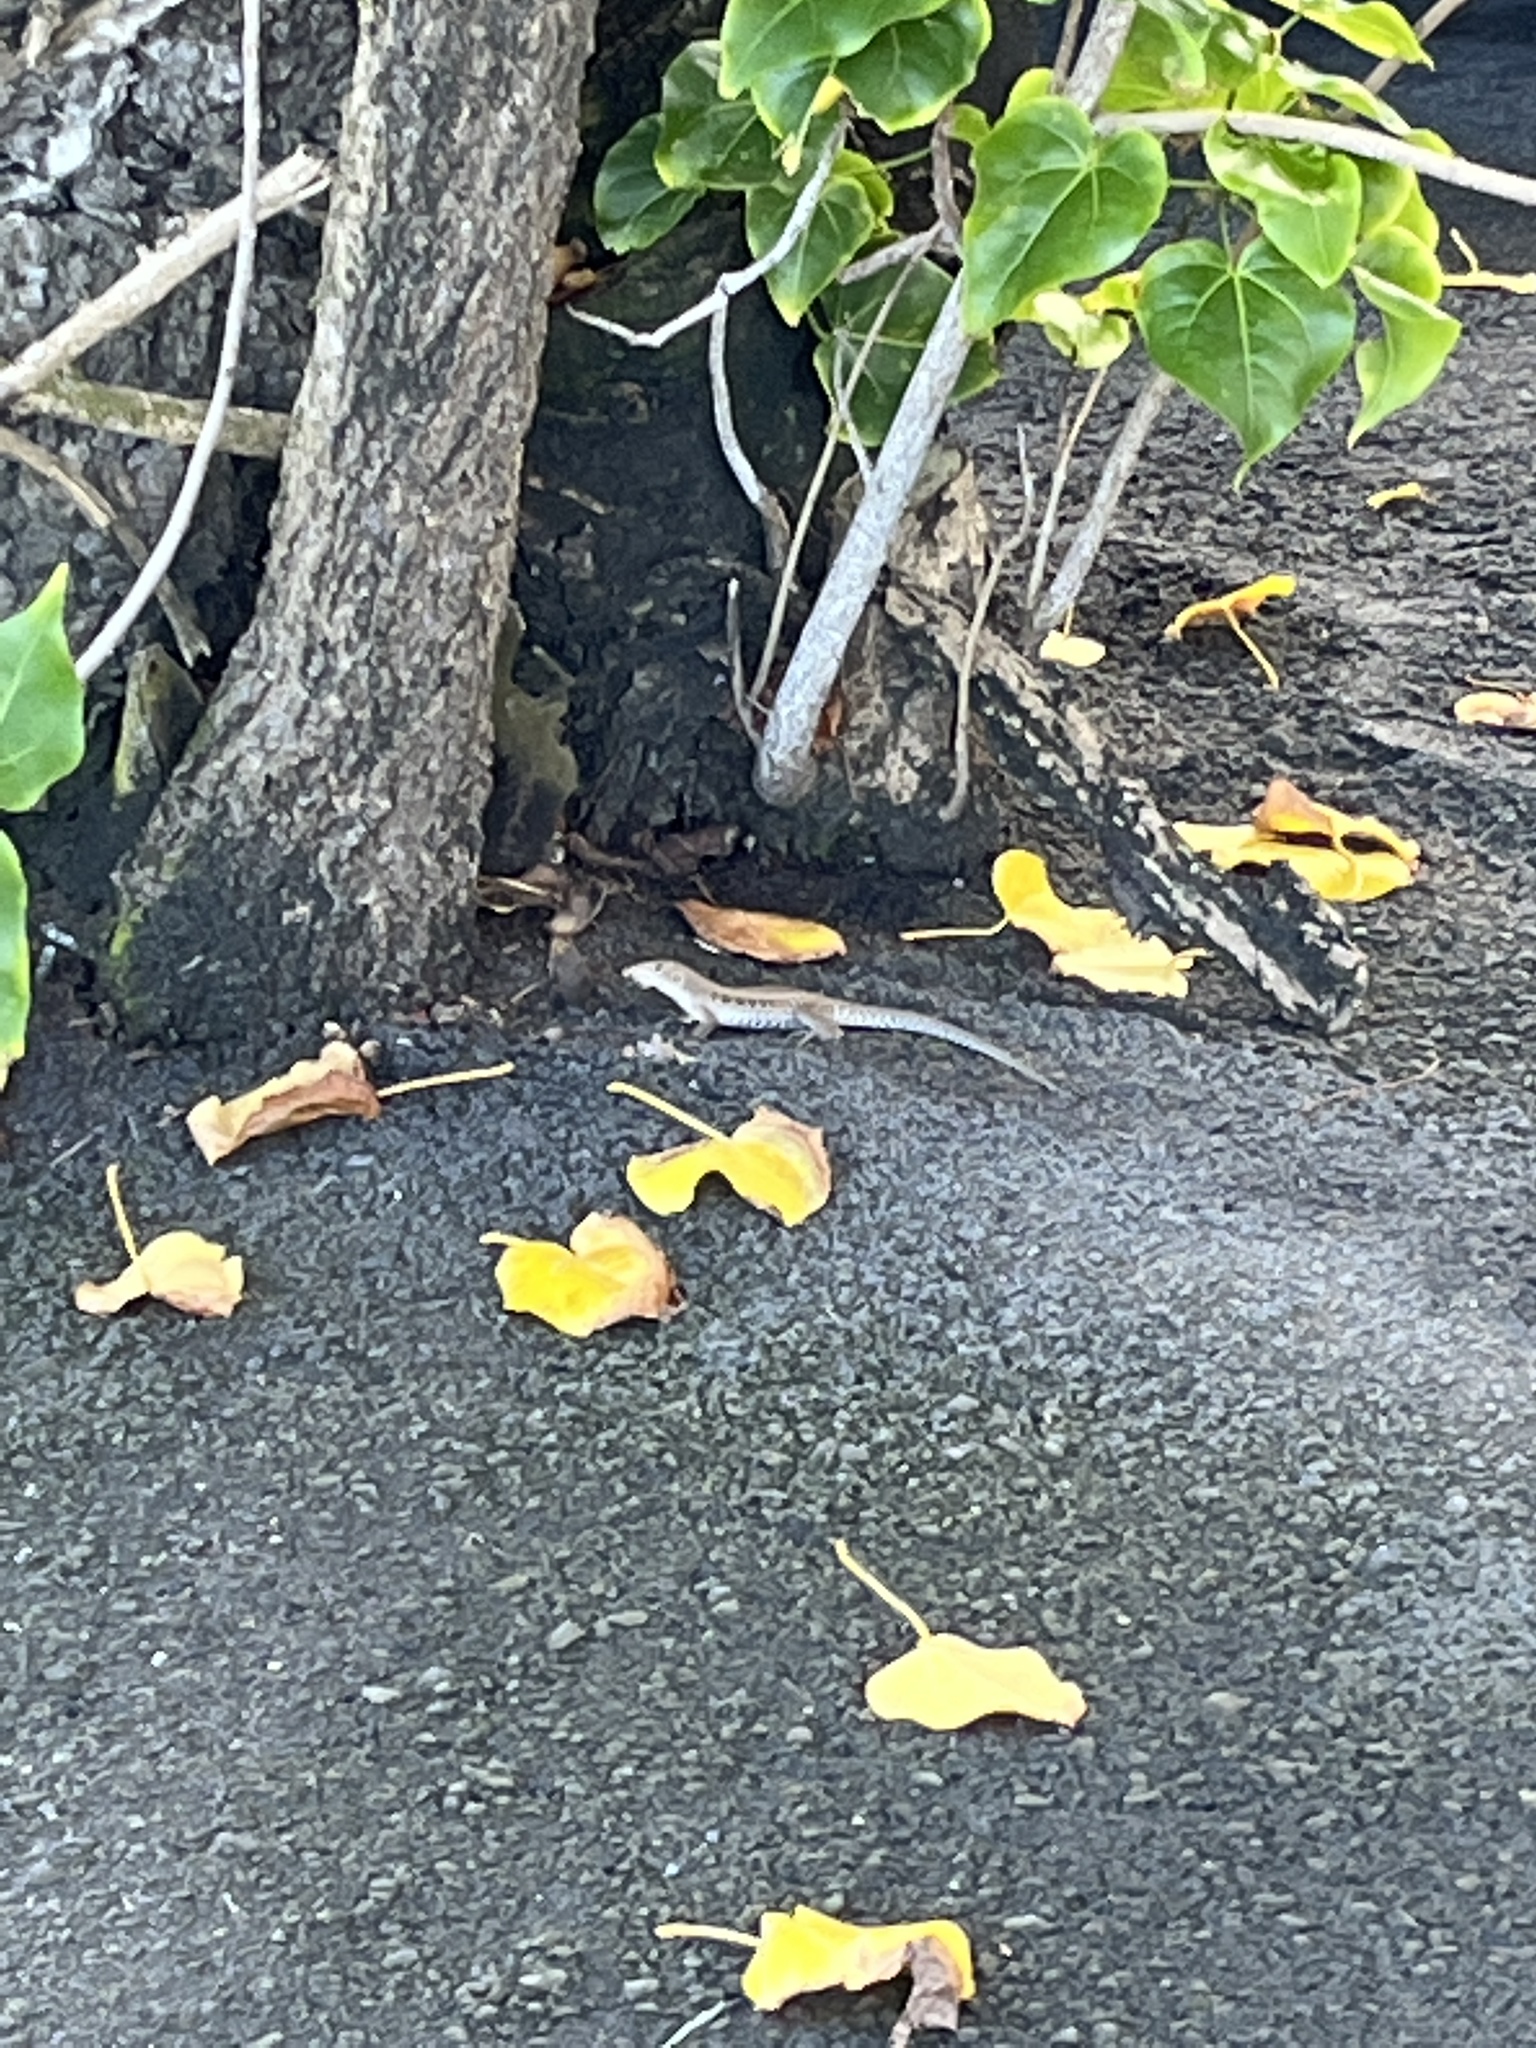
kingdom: Animalia
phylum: Chordata
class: Squamata
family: Teiidae
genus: Pholidoscelis
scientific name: Pholidoscelis exsul
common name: Common puerto rican ameiva
